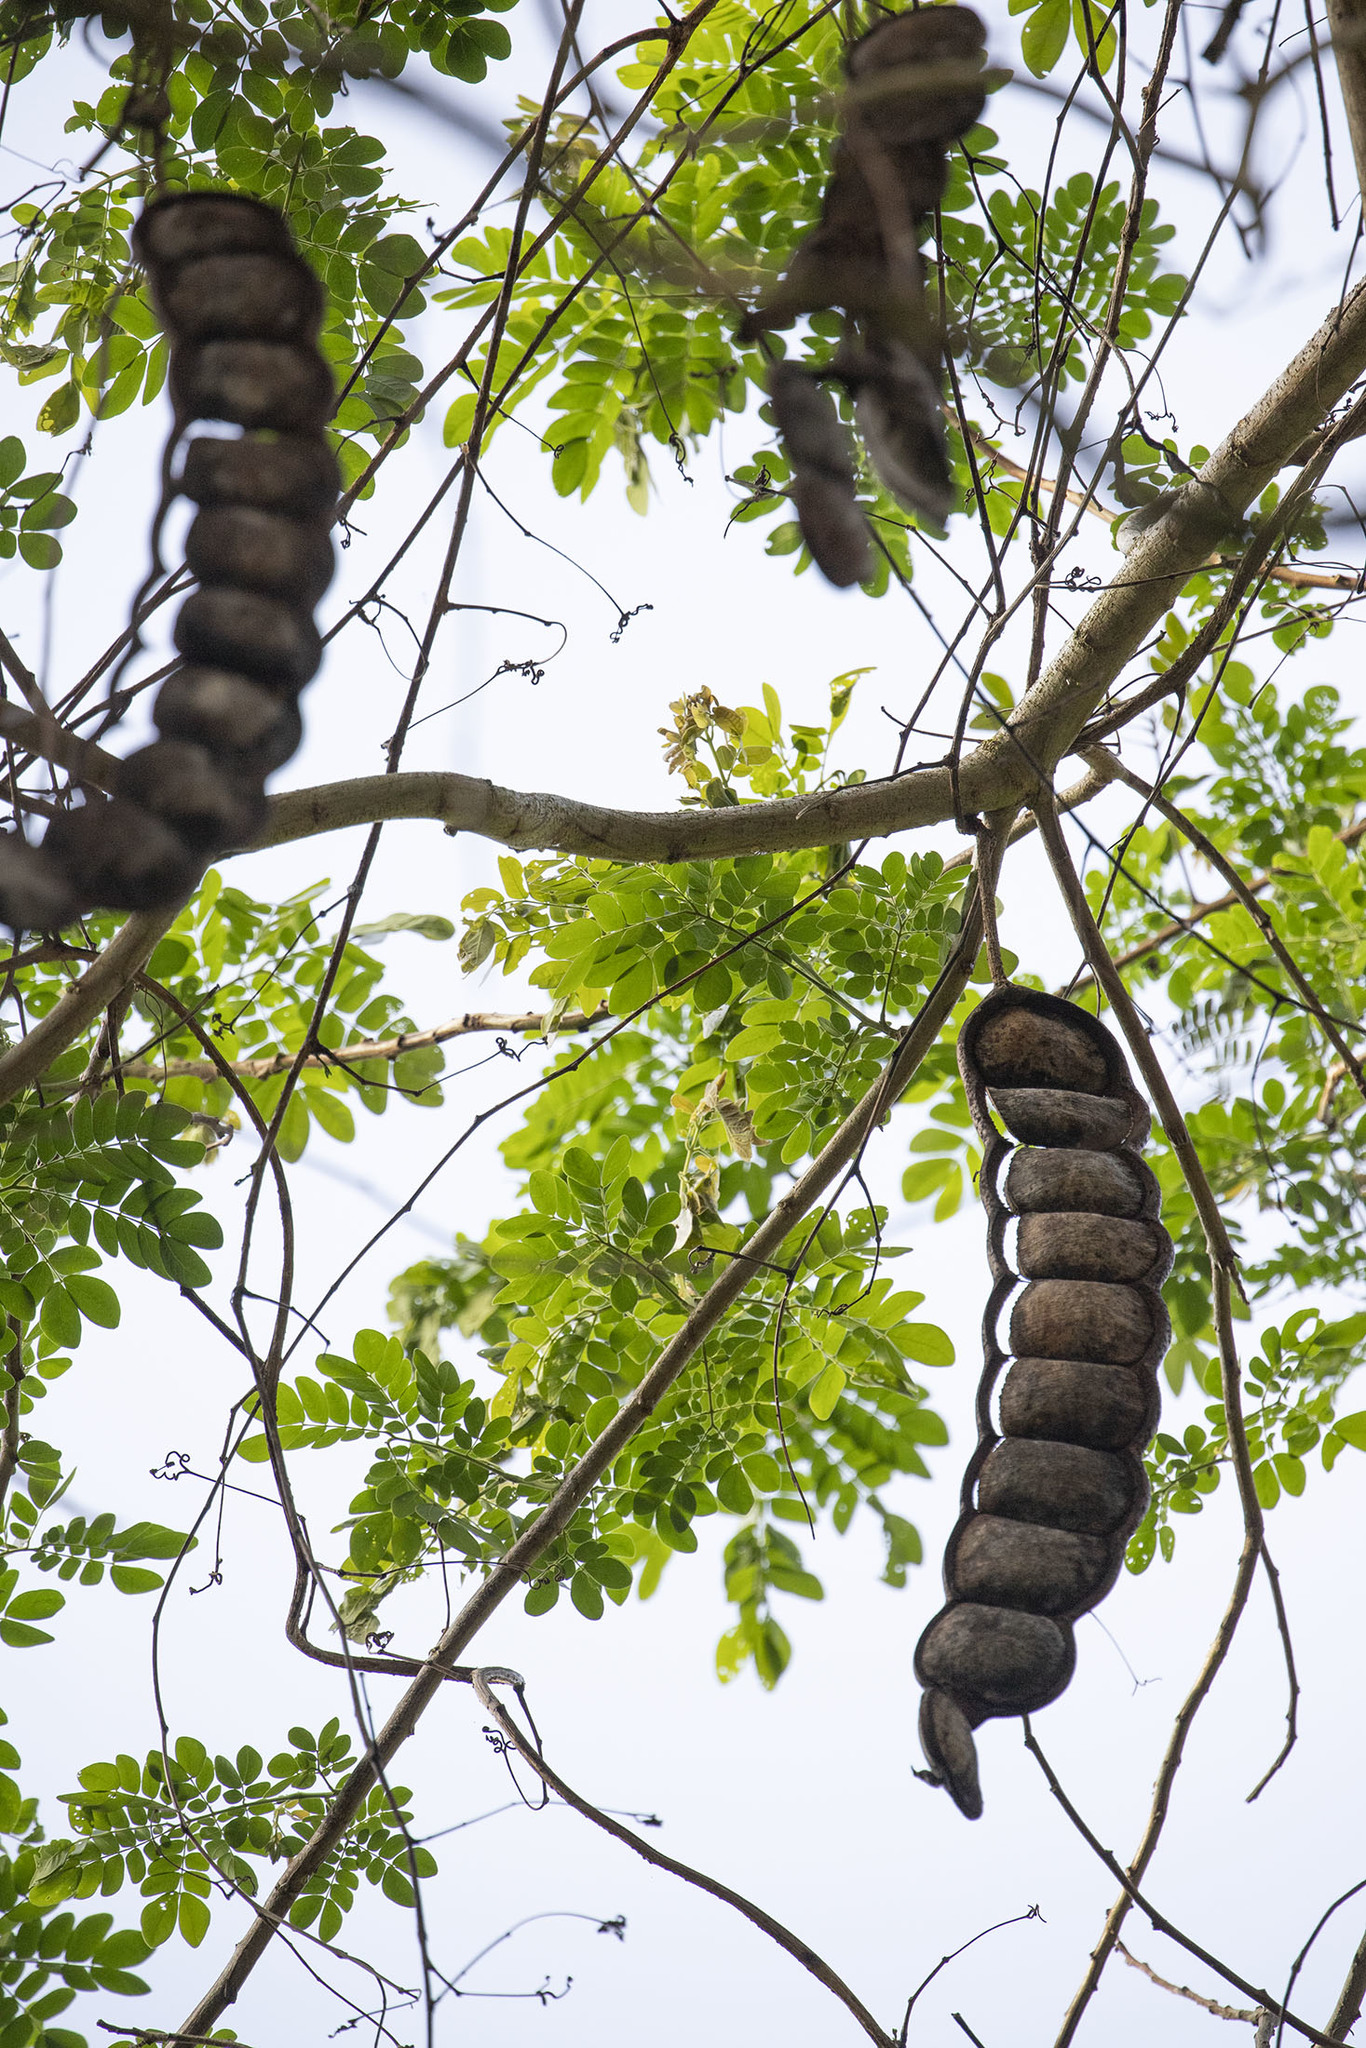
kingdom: Plantae
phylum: Tracheophyta
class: Magnoliopsida
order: Fabales
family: Fabaceae
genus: Entada
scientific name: Entada rheedei
